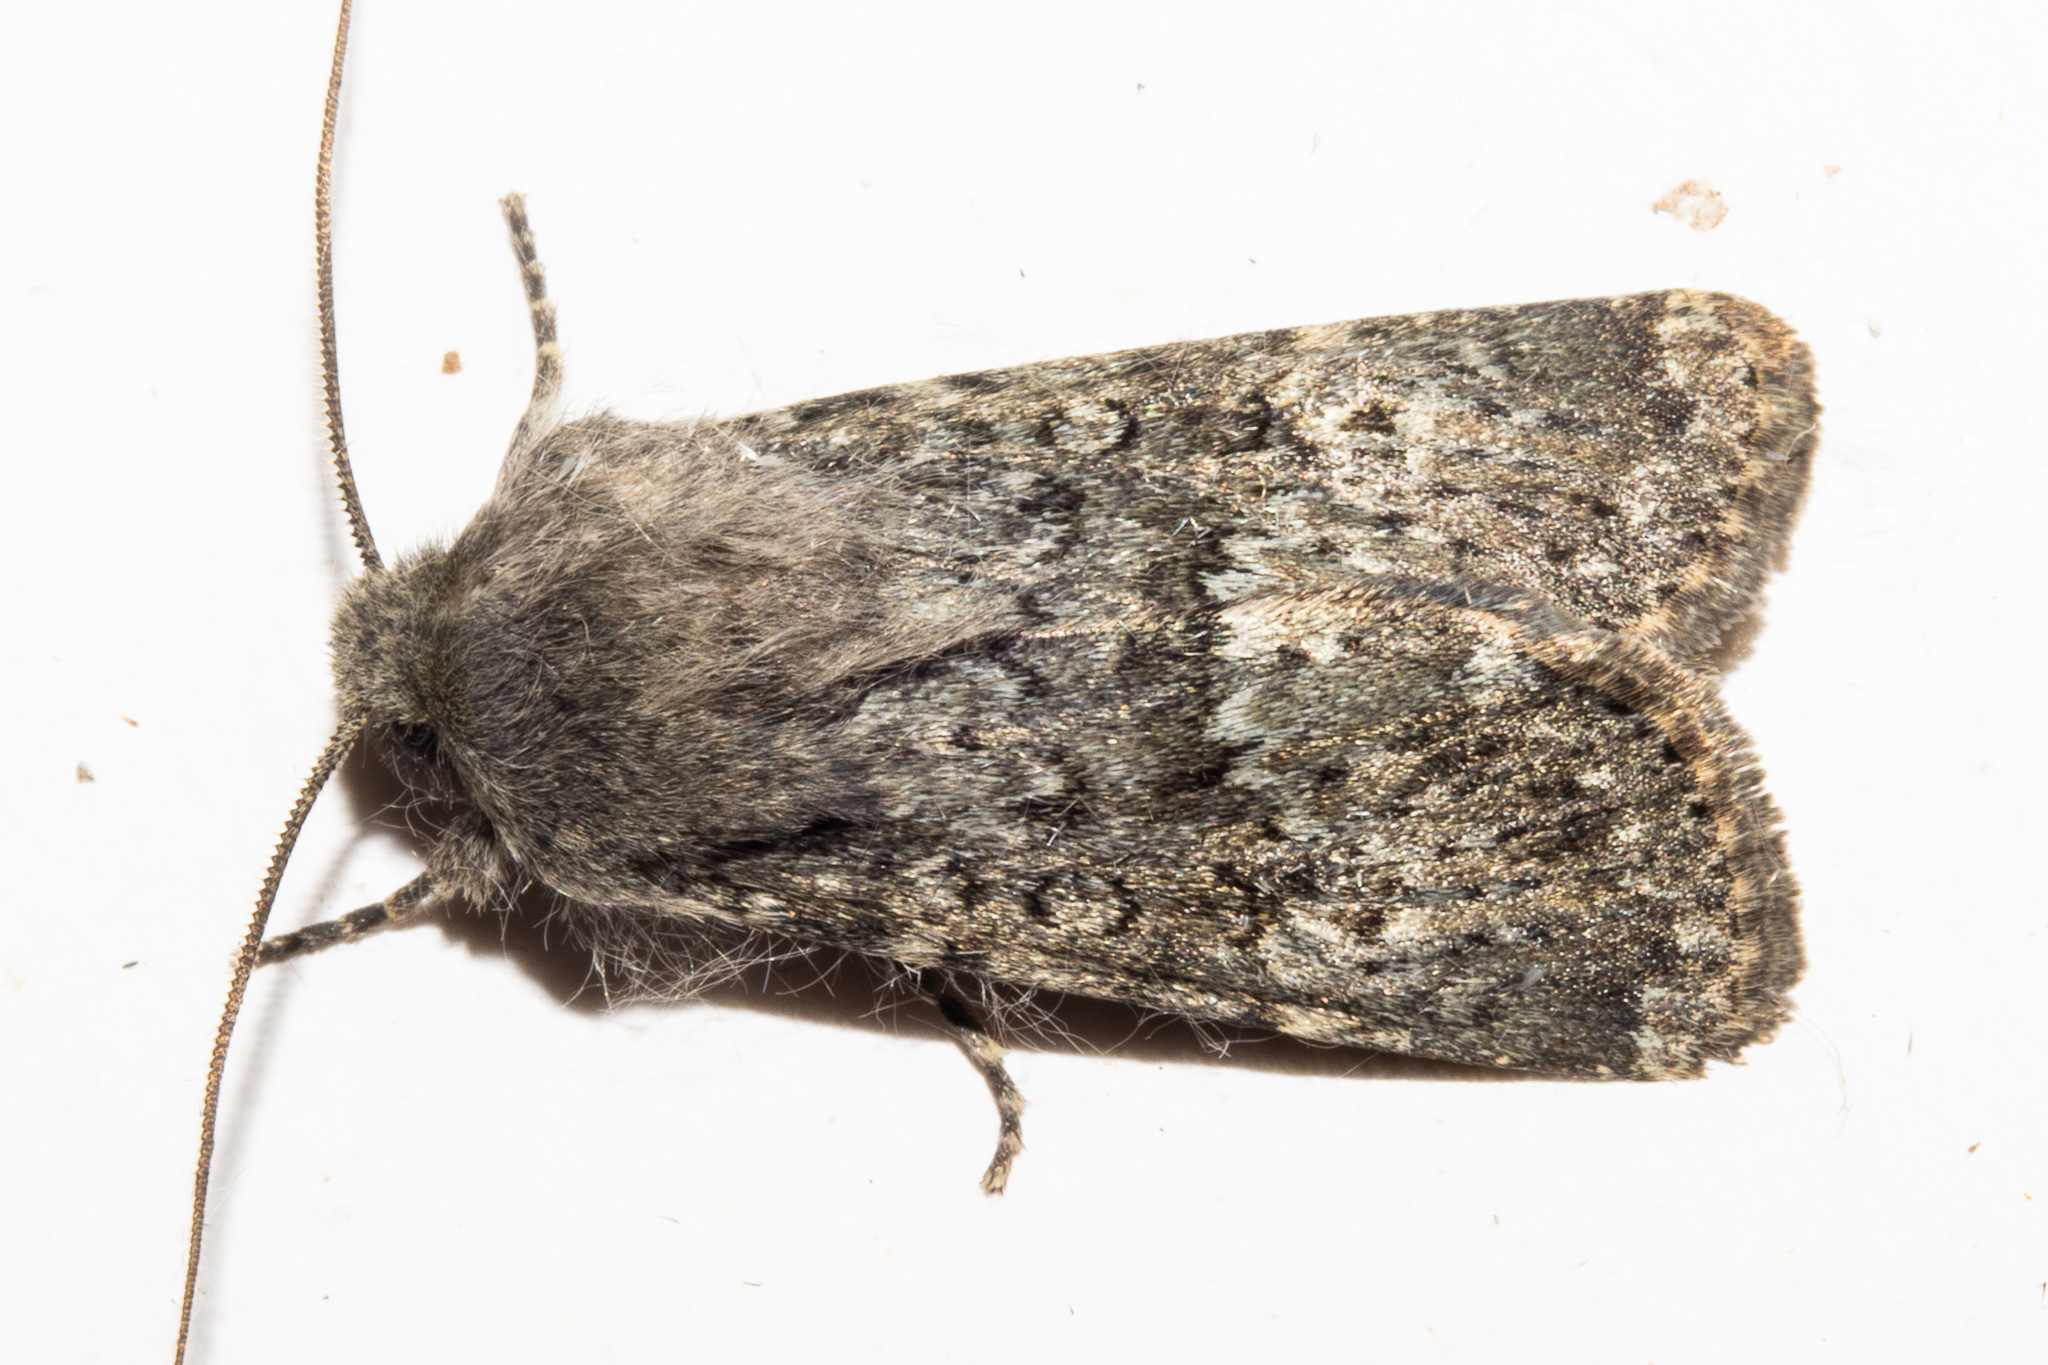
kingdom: Animalia
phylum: Arthropoda
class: Insecta
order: Lepidoptera
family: Noctuidae
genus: Ichneutica
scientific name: Ichneutica moderata
